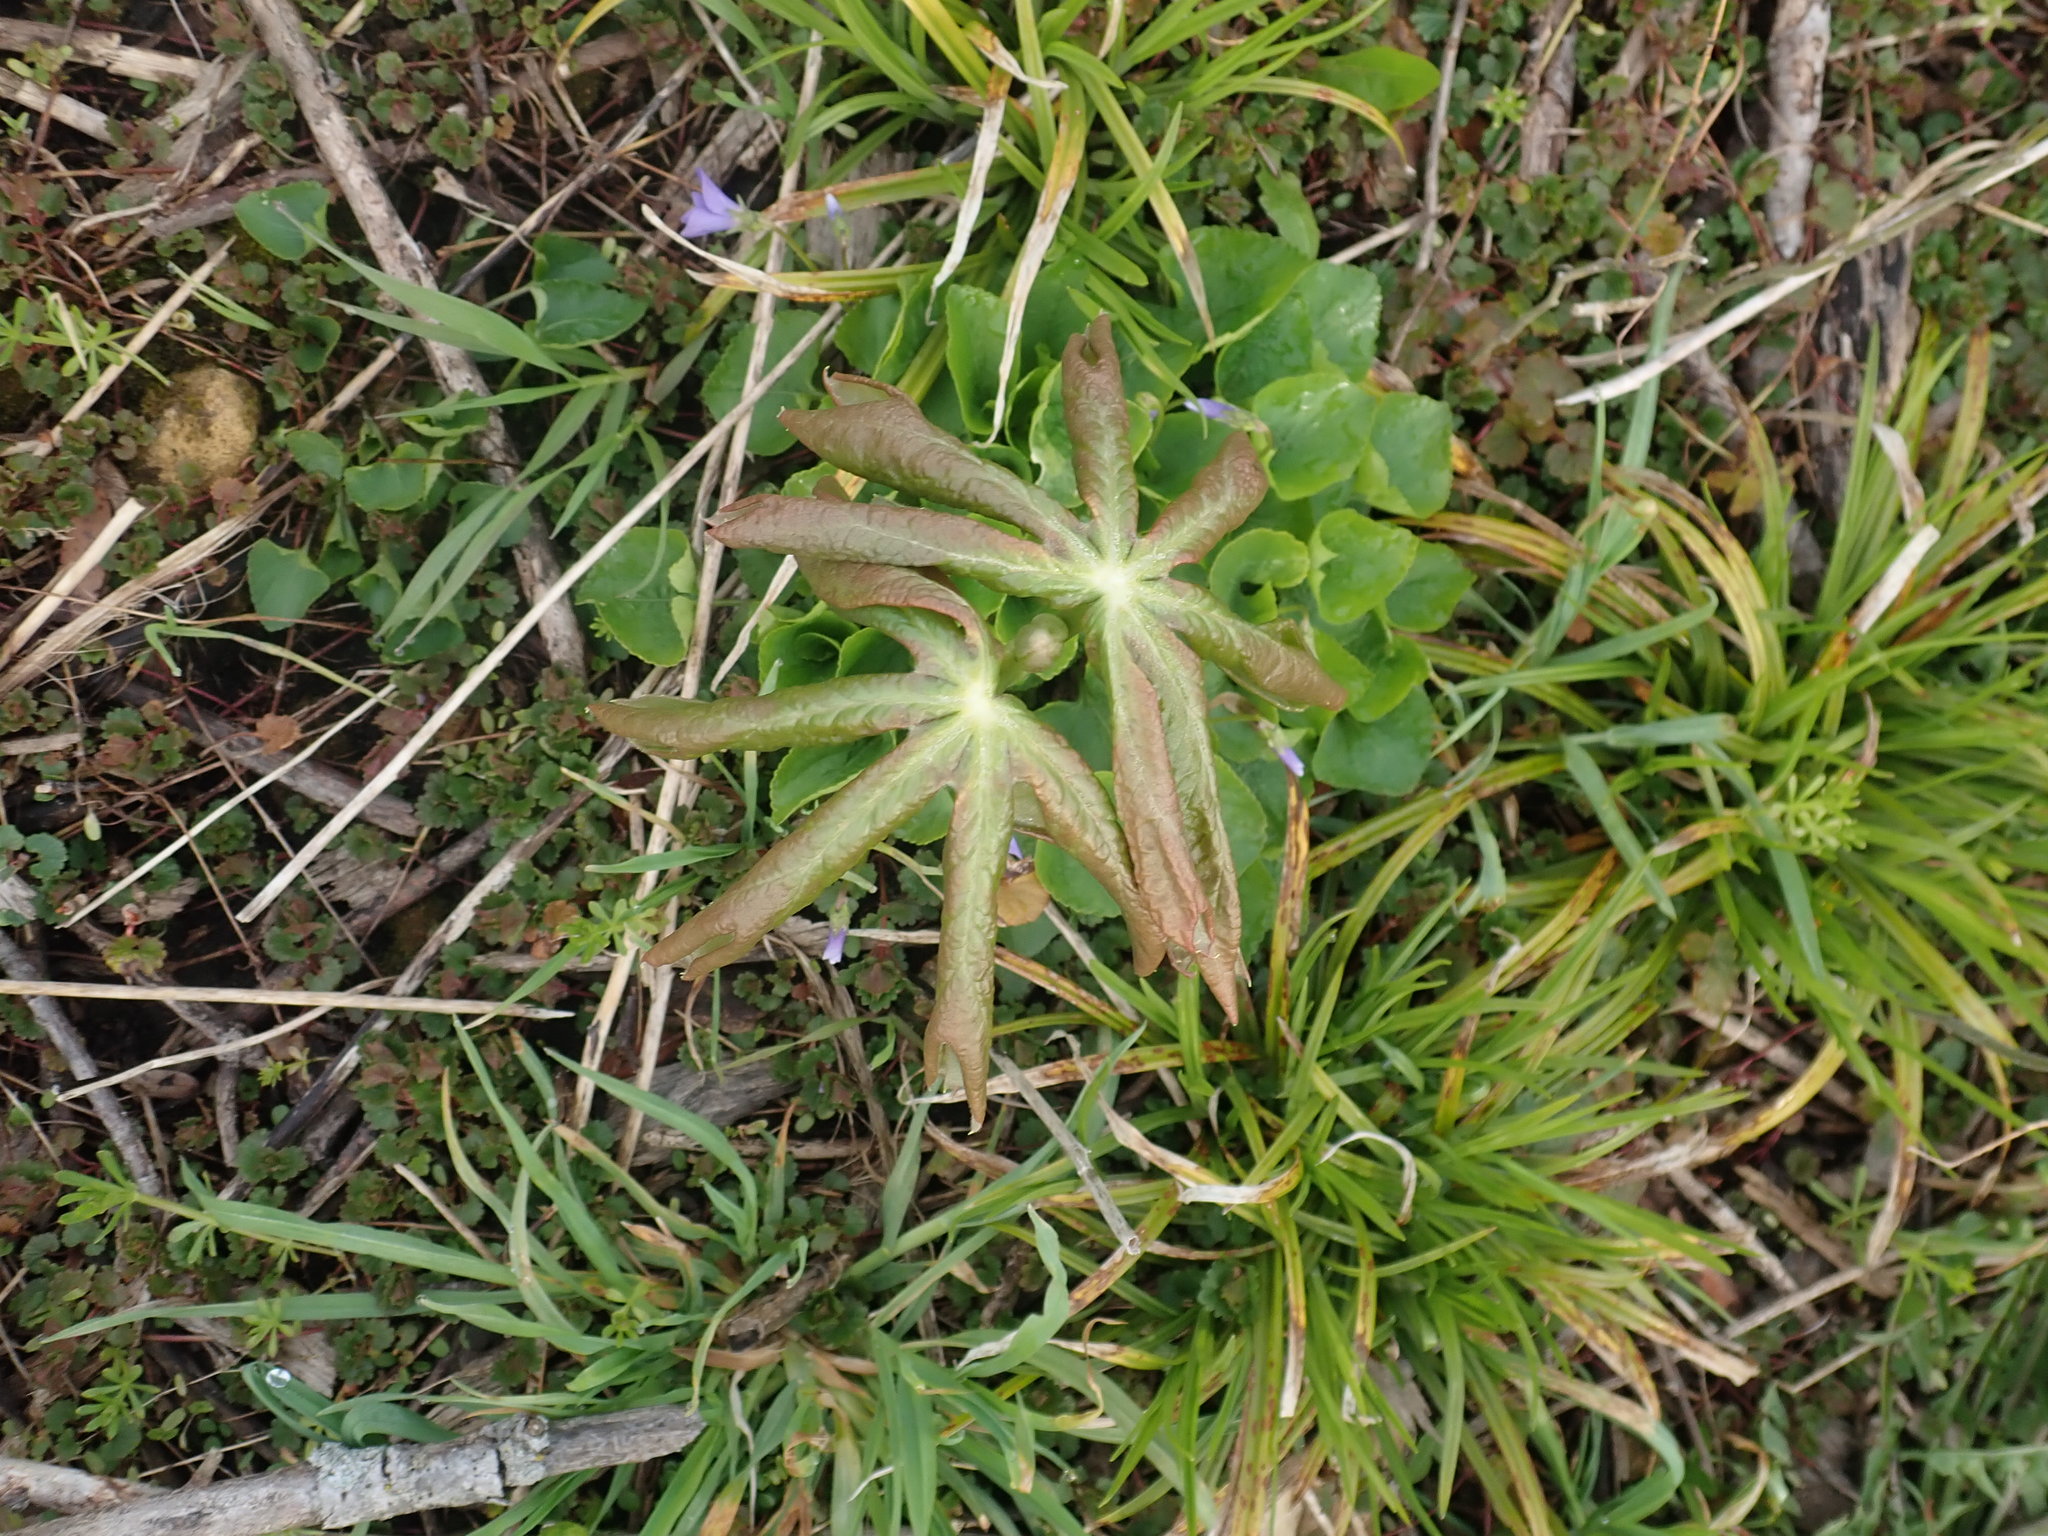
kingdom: Plantae
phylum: Tracheophyta
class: Magnoliopsida
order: Ranunculales
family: Berberidaceae
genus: Podophyllum
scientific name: Podophyllum peltatum
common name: Wild mandrake
